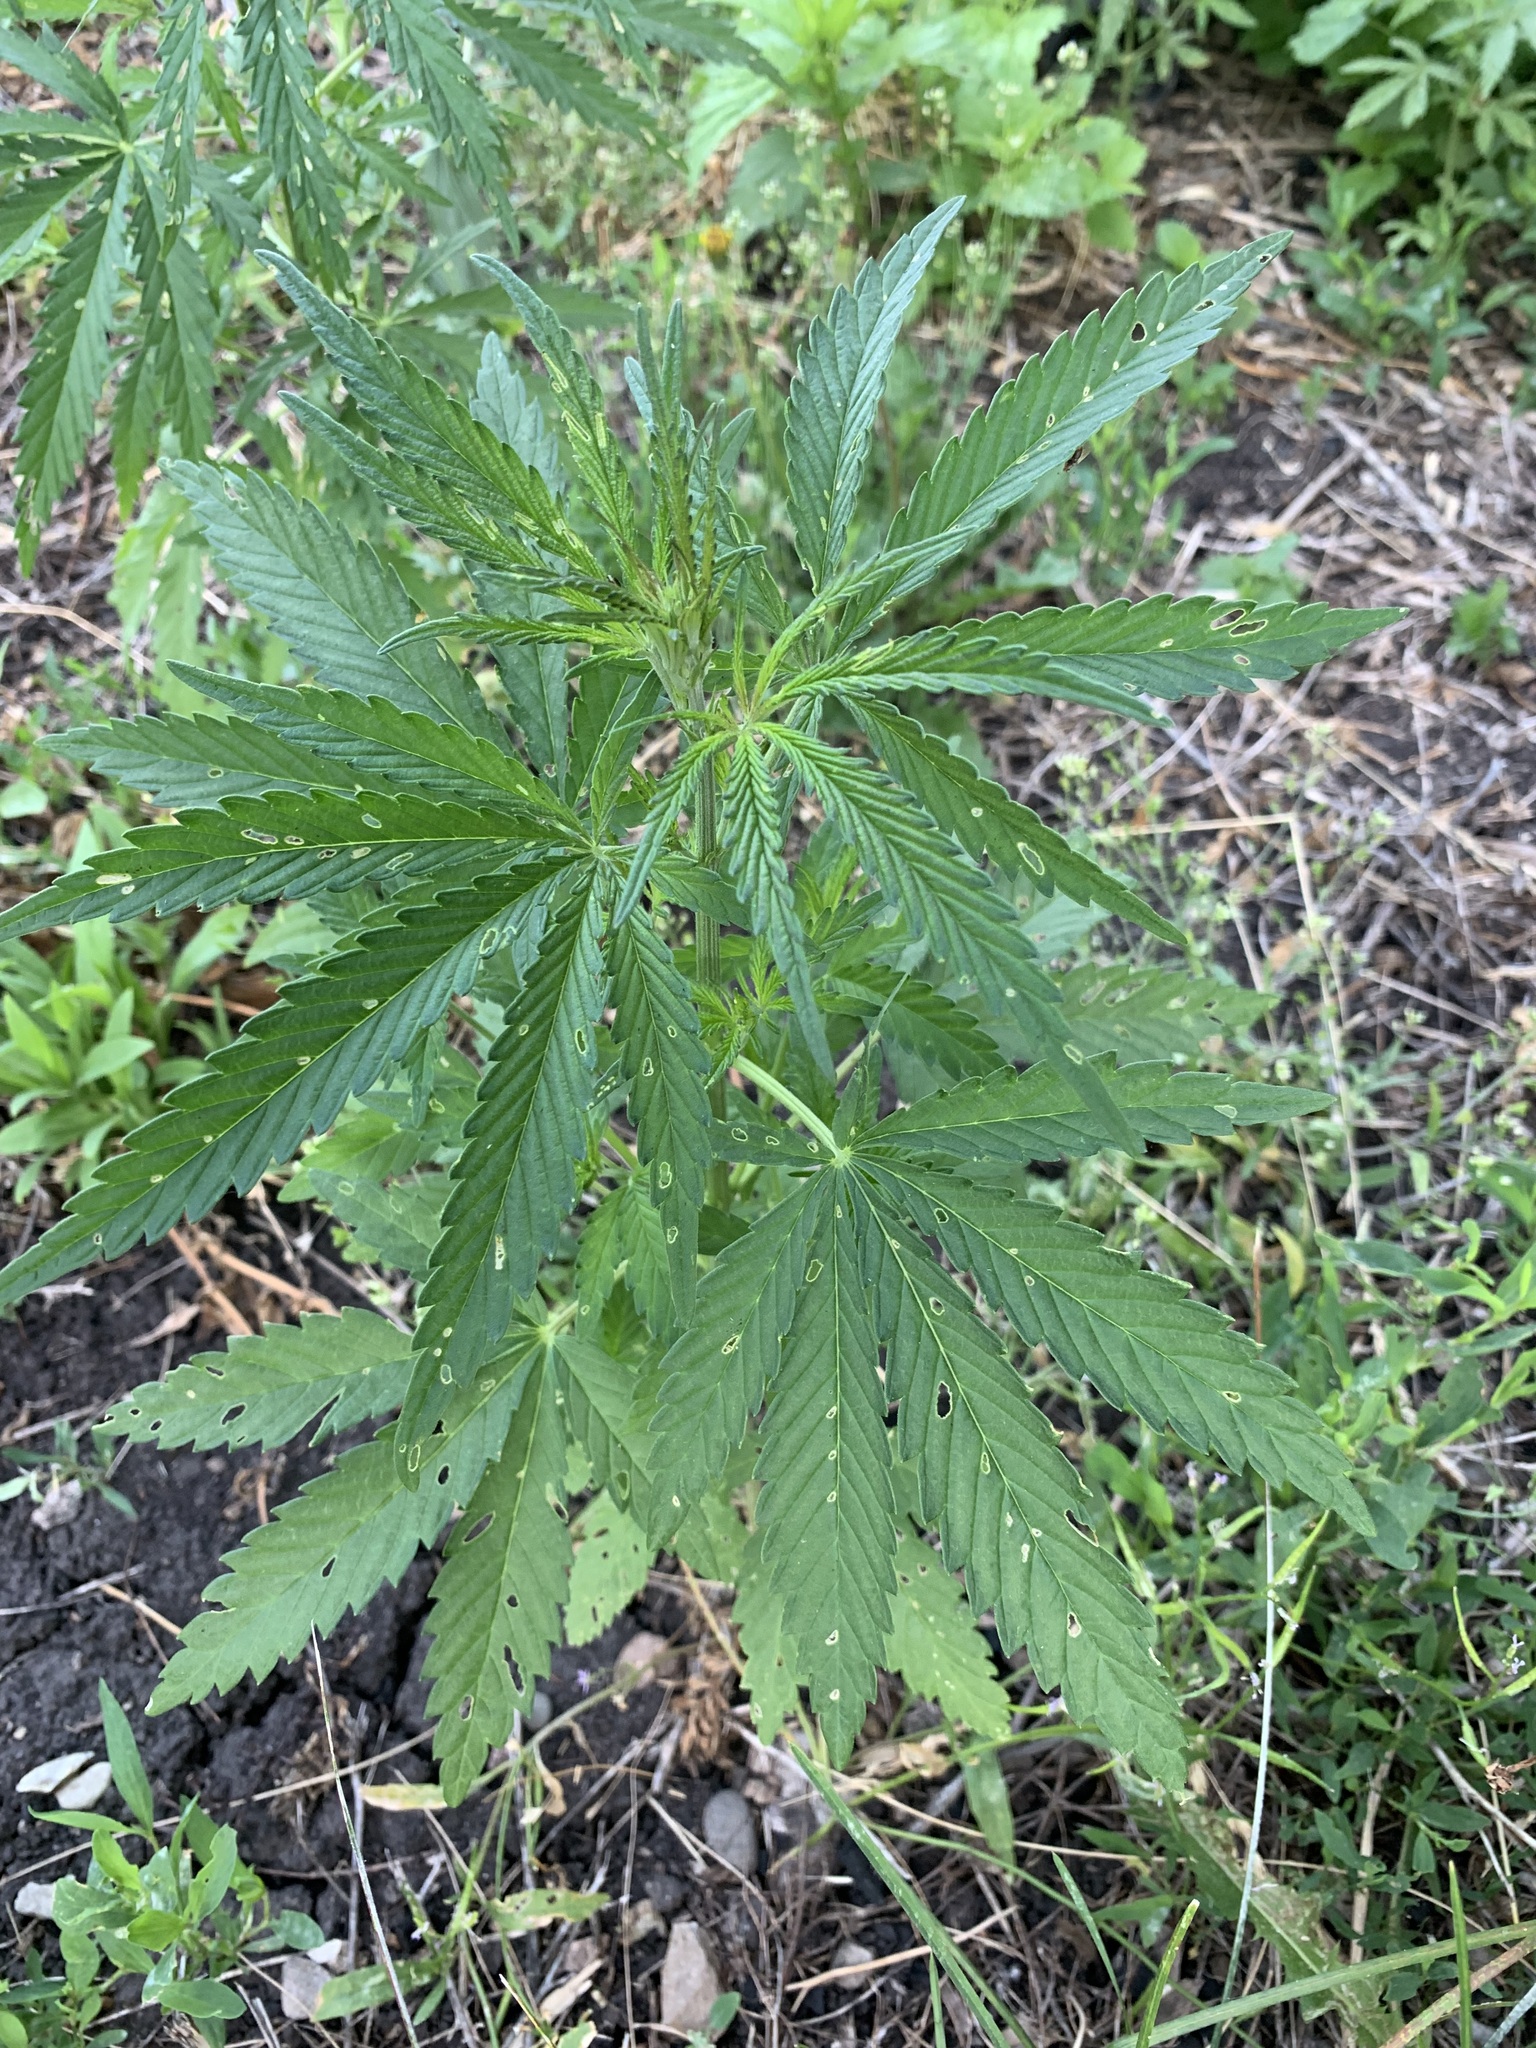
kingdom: Plantae
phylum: Tracheophyta
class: Magnoliopsida
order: Rosales
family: Cannabaceae
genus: Cannabis
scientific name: Cannabis sativa
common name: Hemp
